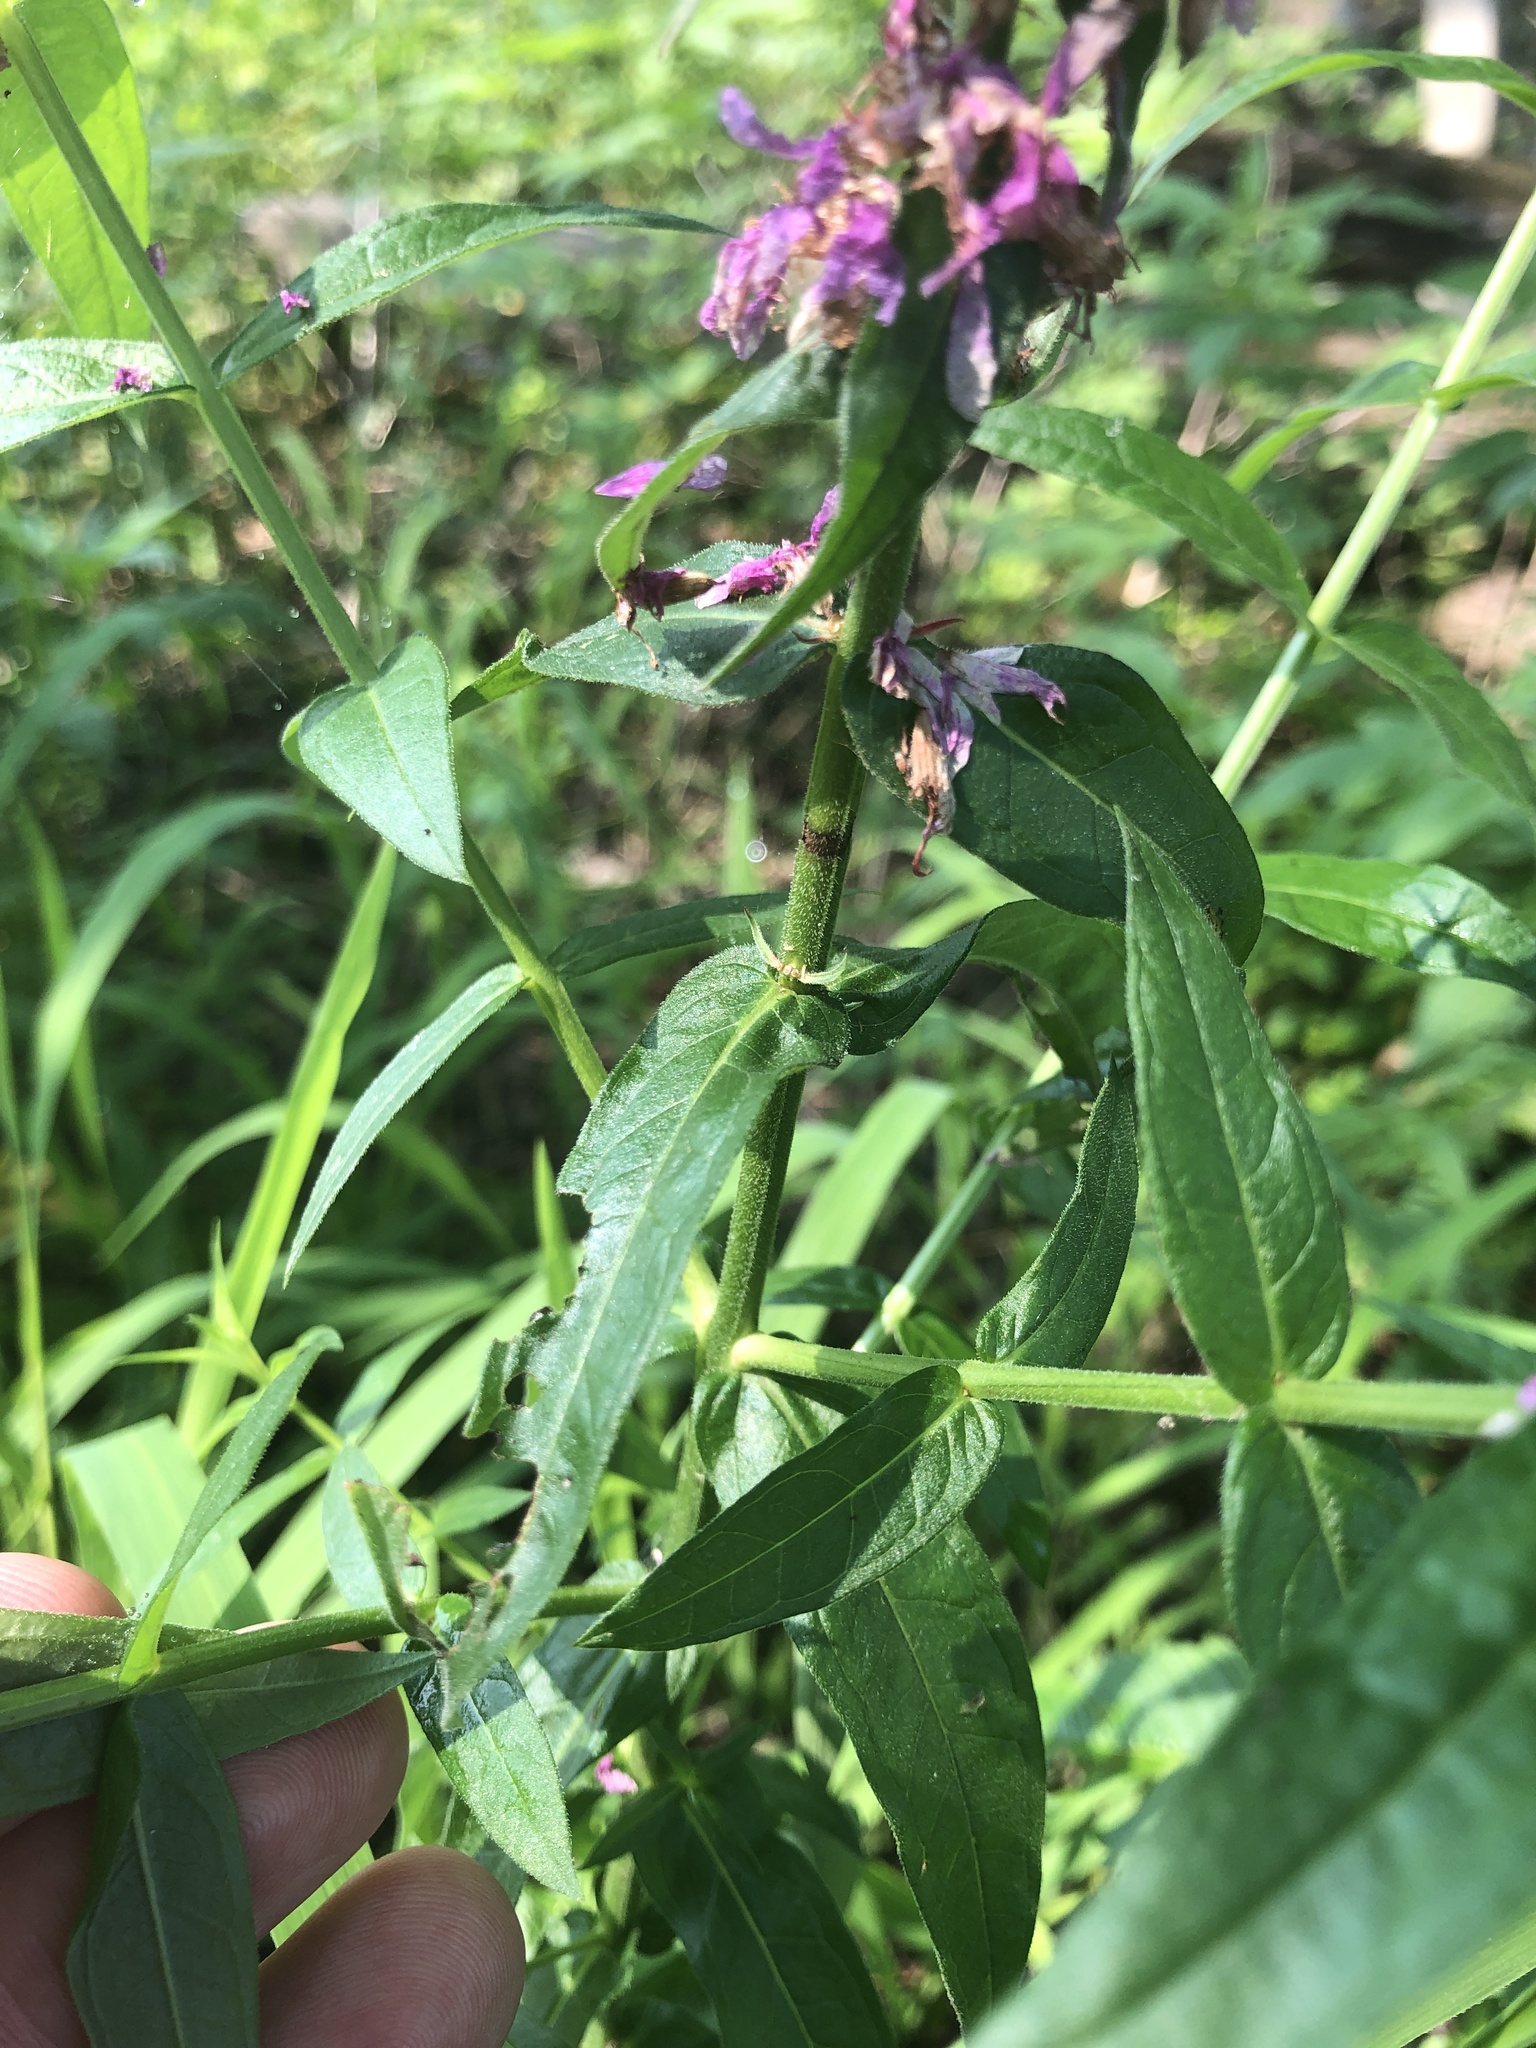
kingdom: Plantae
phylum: Tracheophyta
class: Magnoliopsida
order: Myrtales
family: Lythraceae
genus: Lythrum
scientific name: Lythrum salicaria
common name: Purple loosestrife
